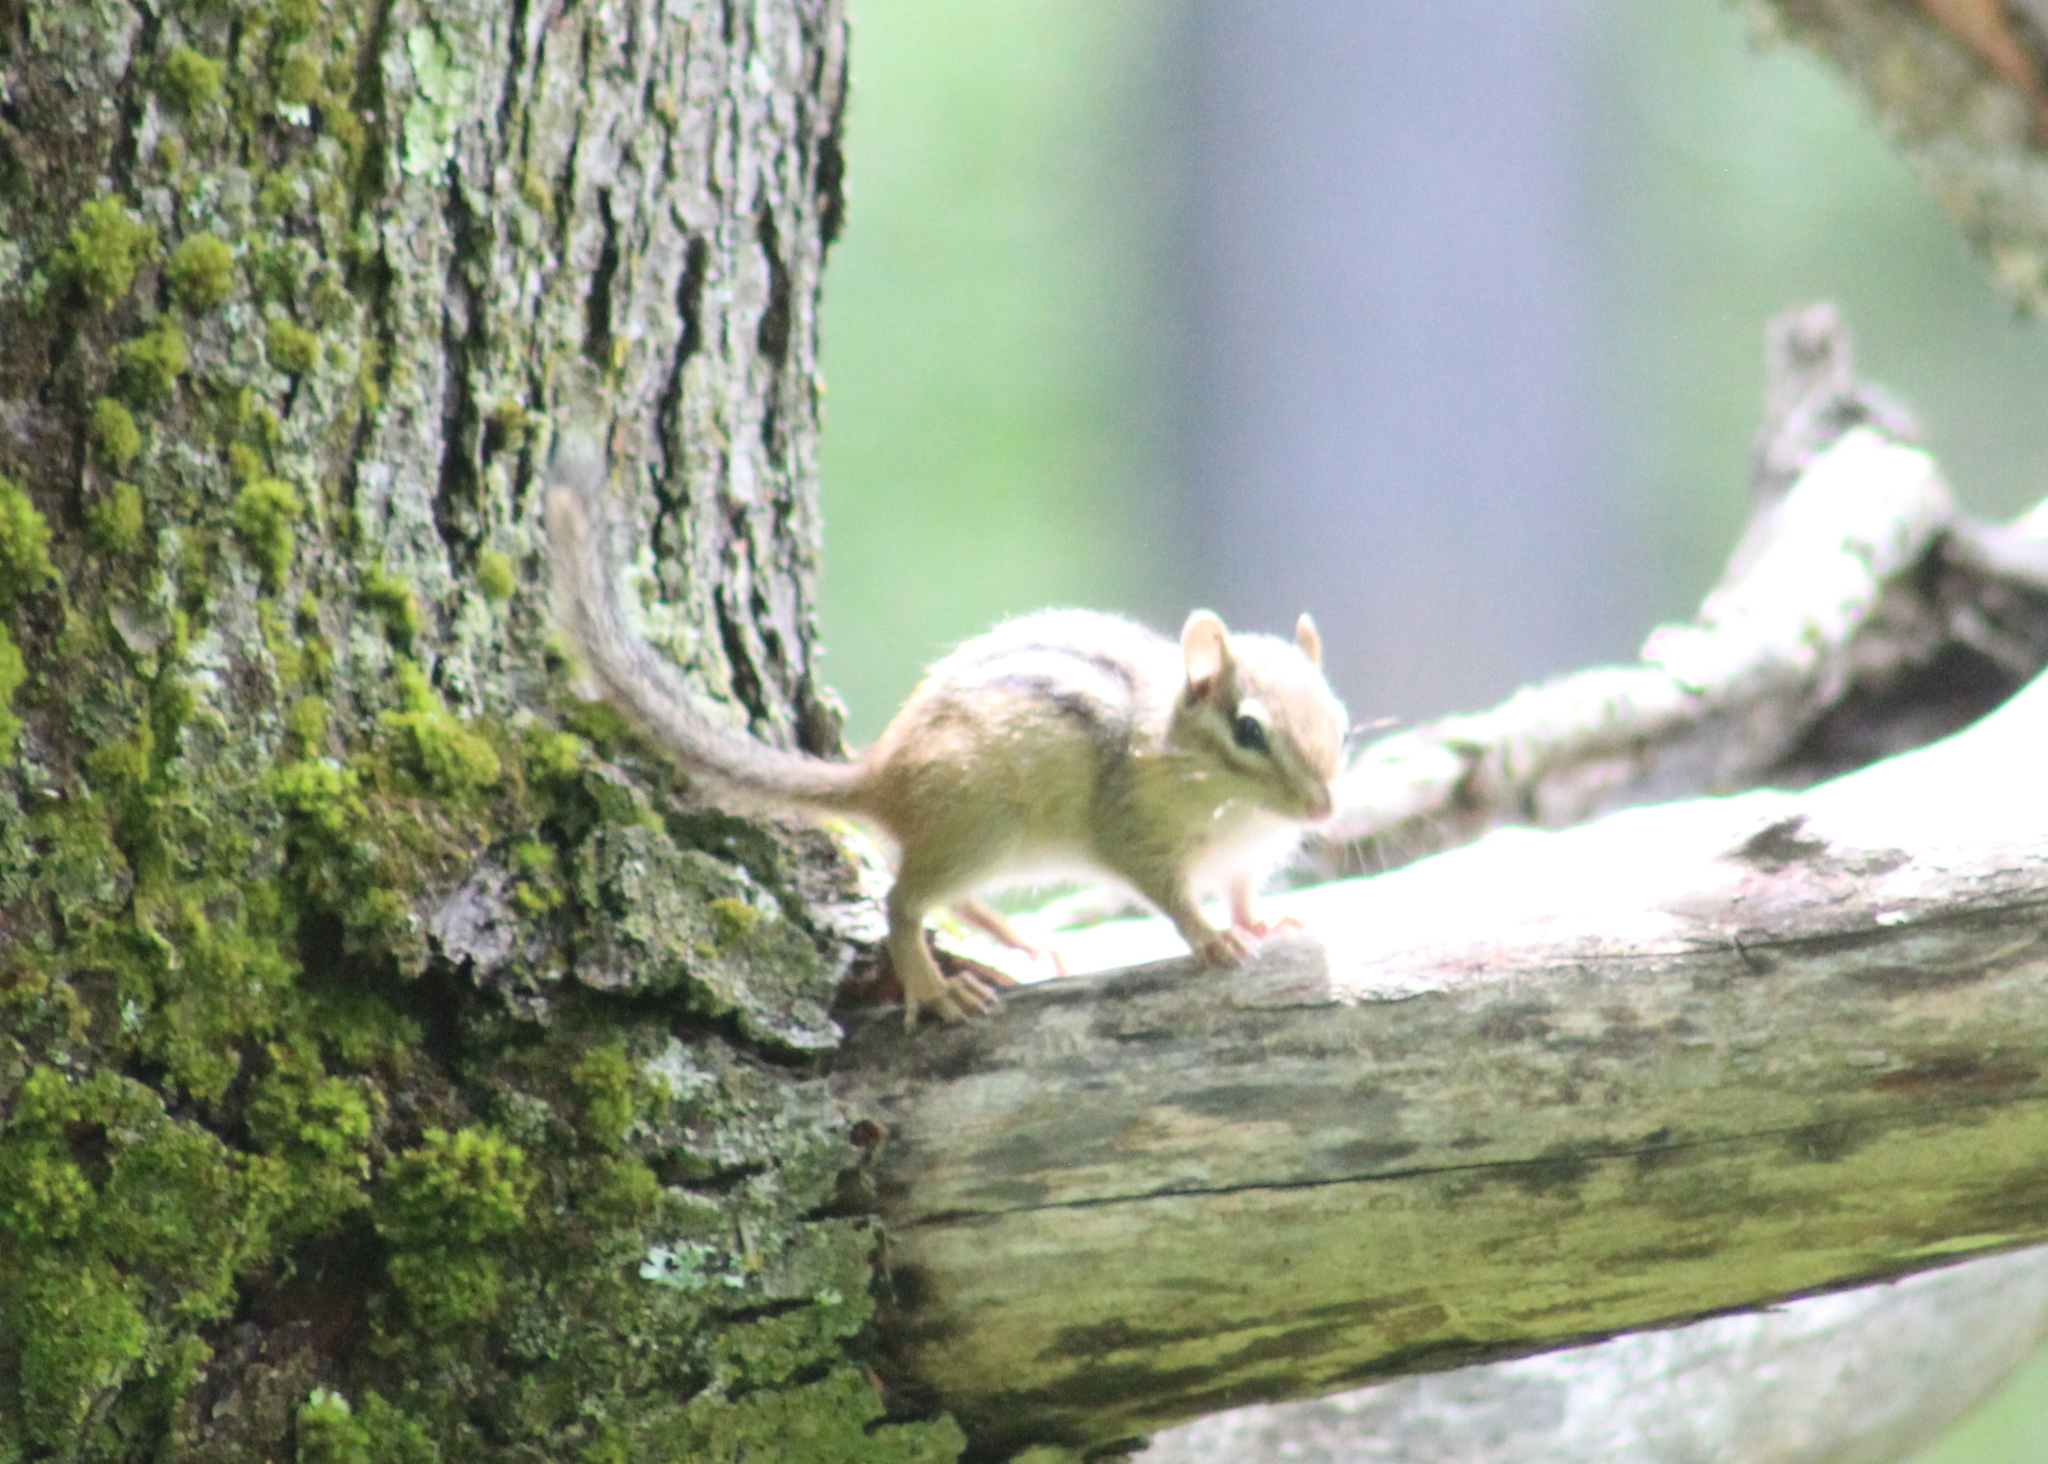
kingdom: Animalia
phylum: Chordata
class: Mammalia
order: Rodentia
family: Sciuridae
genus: Tamias
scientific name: Tamias striatus
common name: Eastern chipmunk
